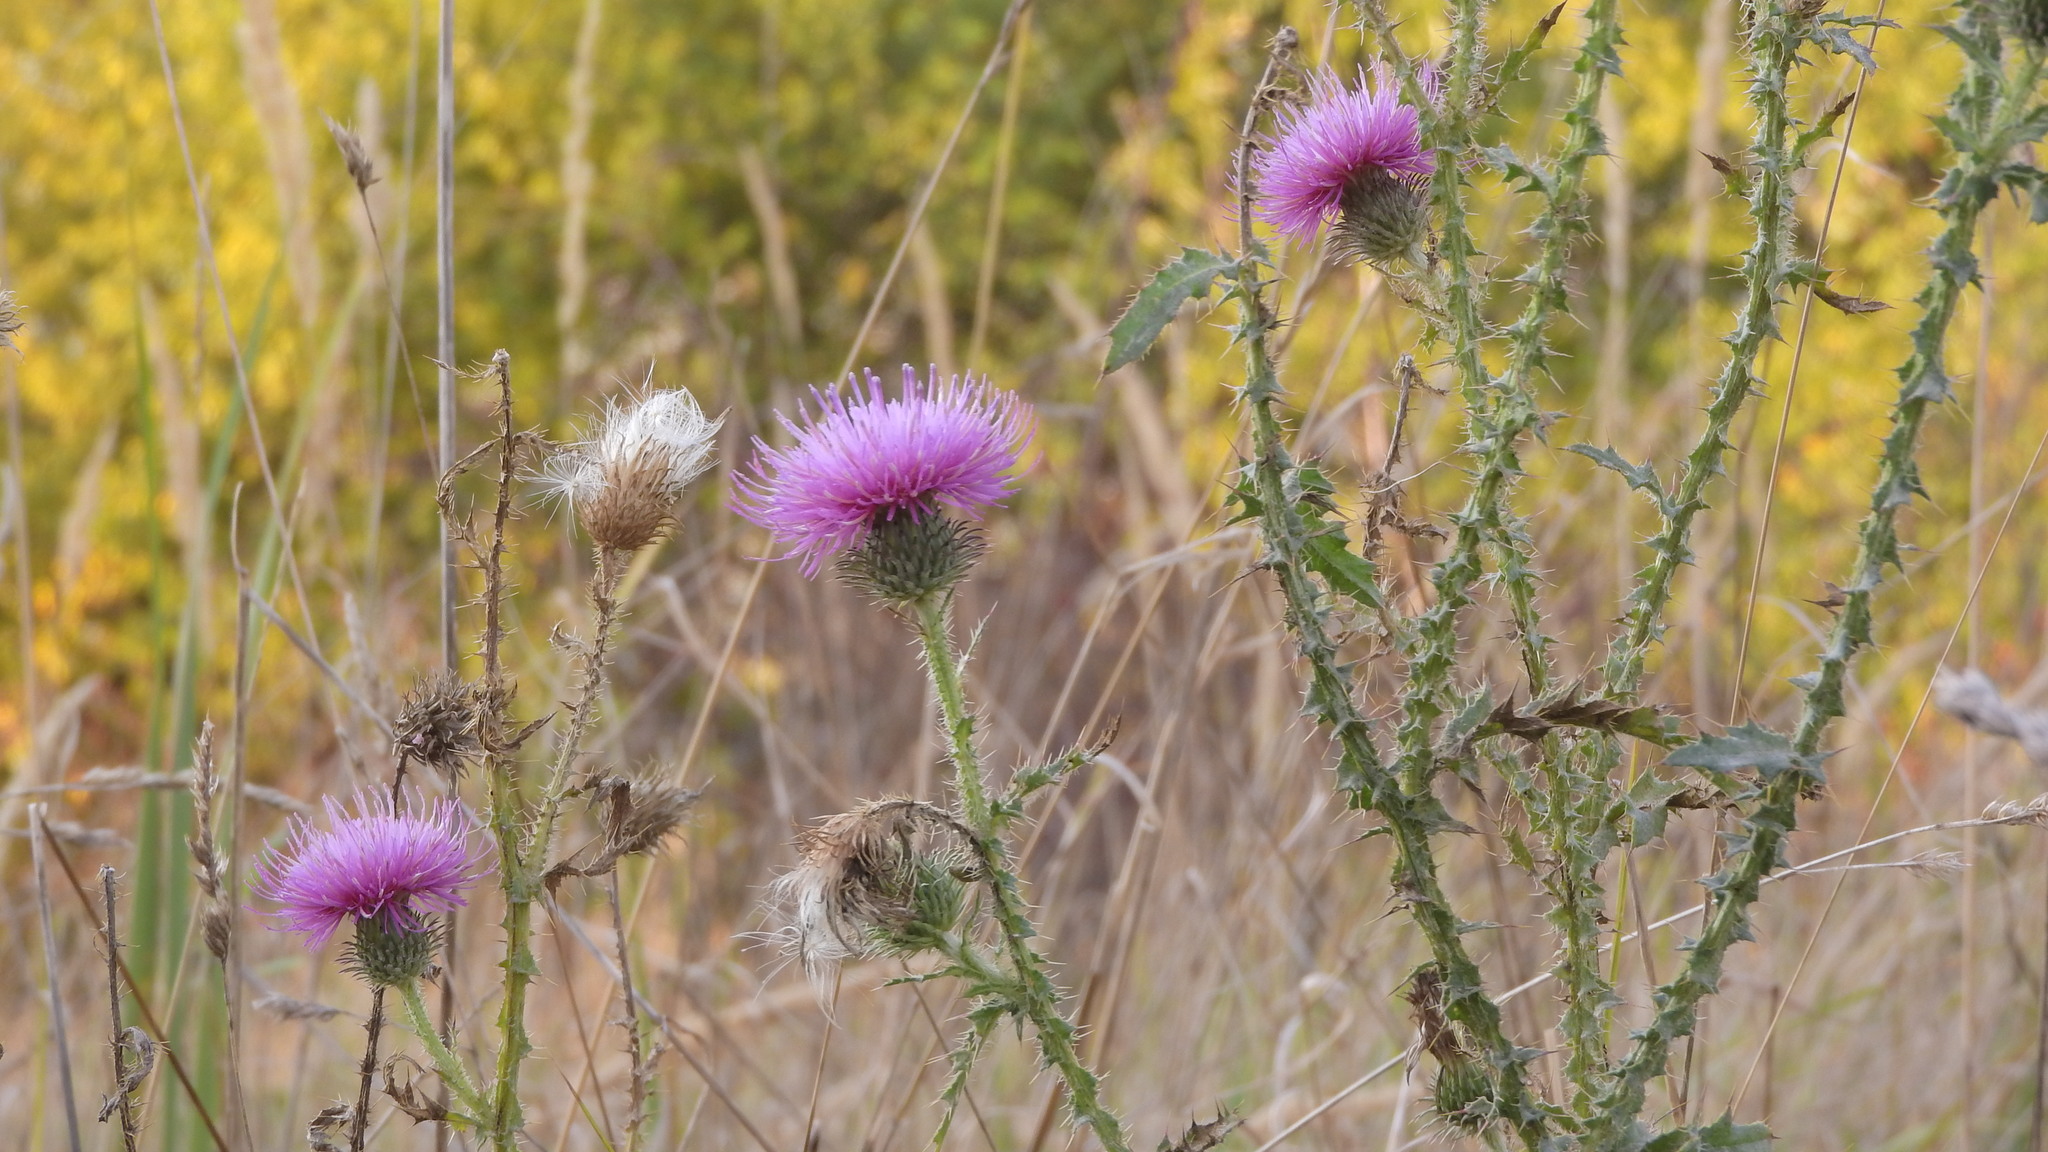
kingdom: Plantae
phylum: Tracheophyta
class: Magnoliopsida
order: Asterales
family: Asteraceae
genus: Carduus
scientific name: Carduus acanthoides
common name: Plumeless thistle
